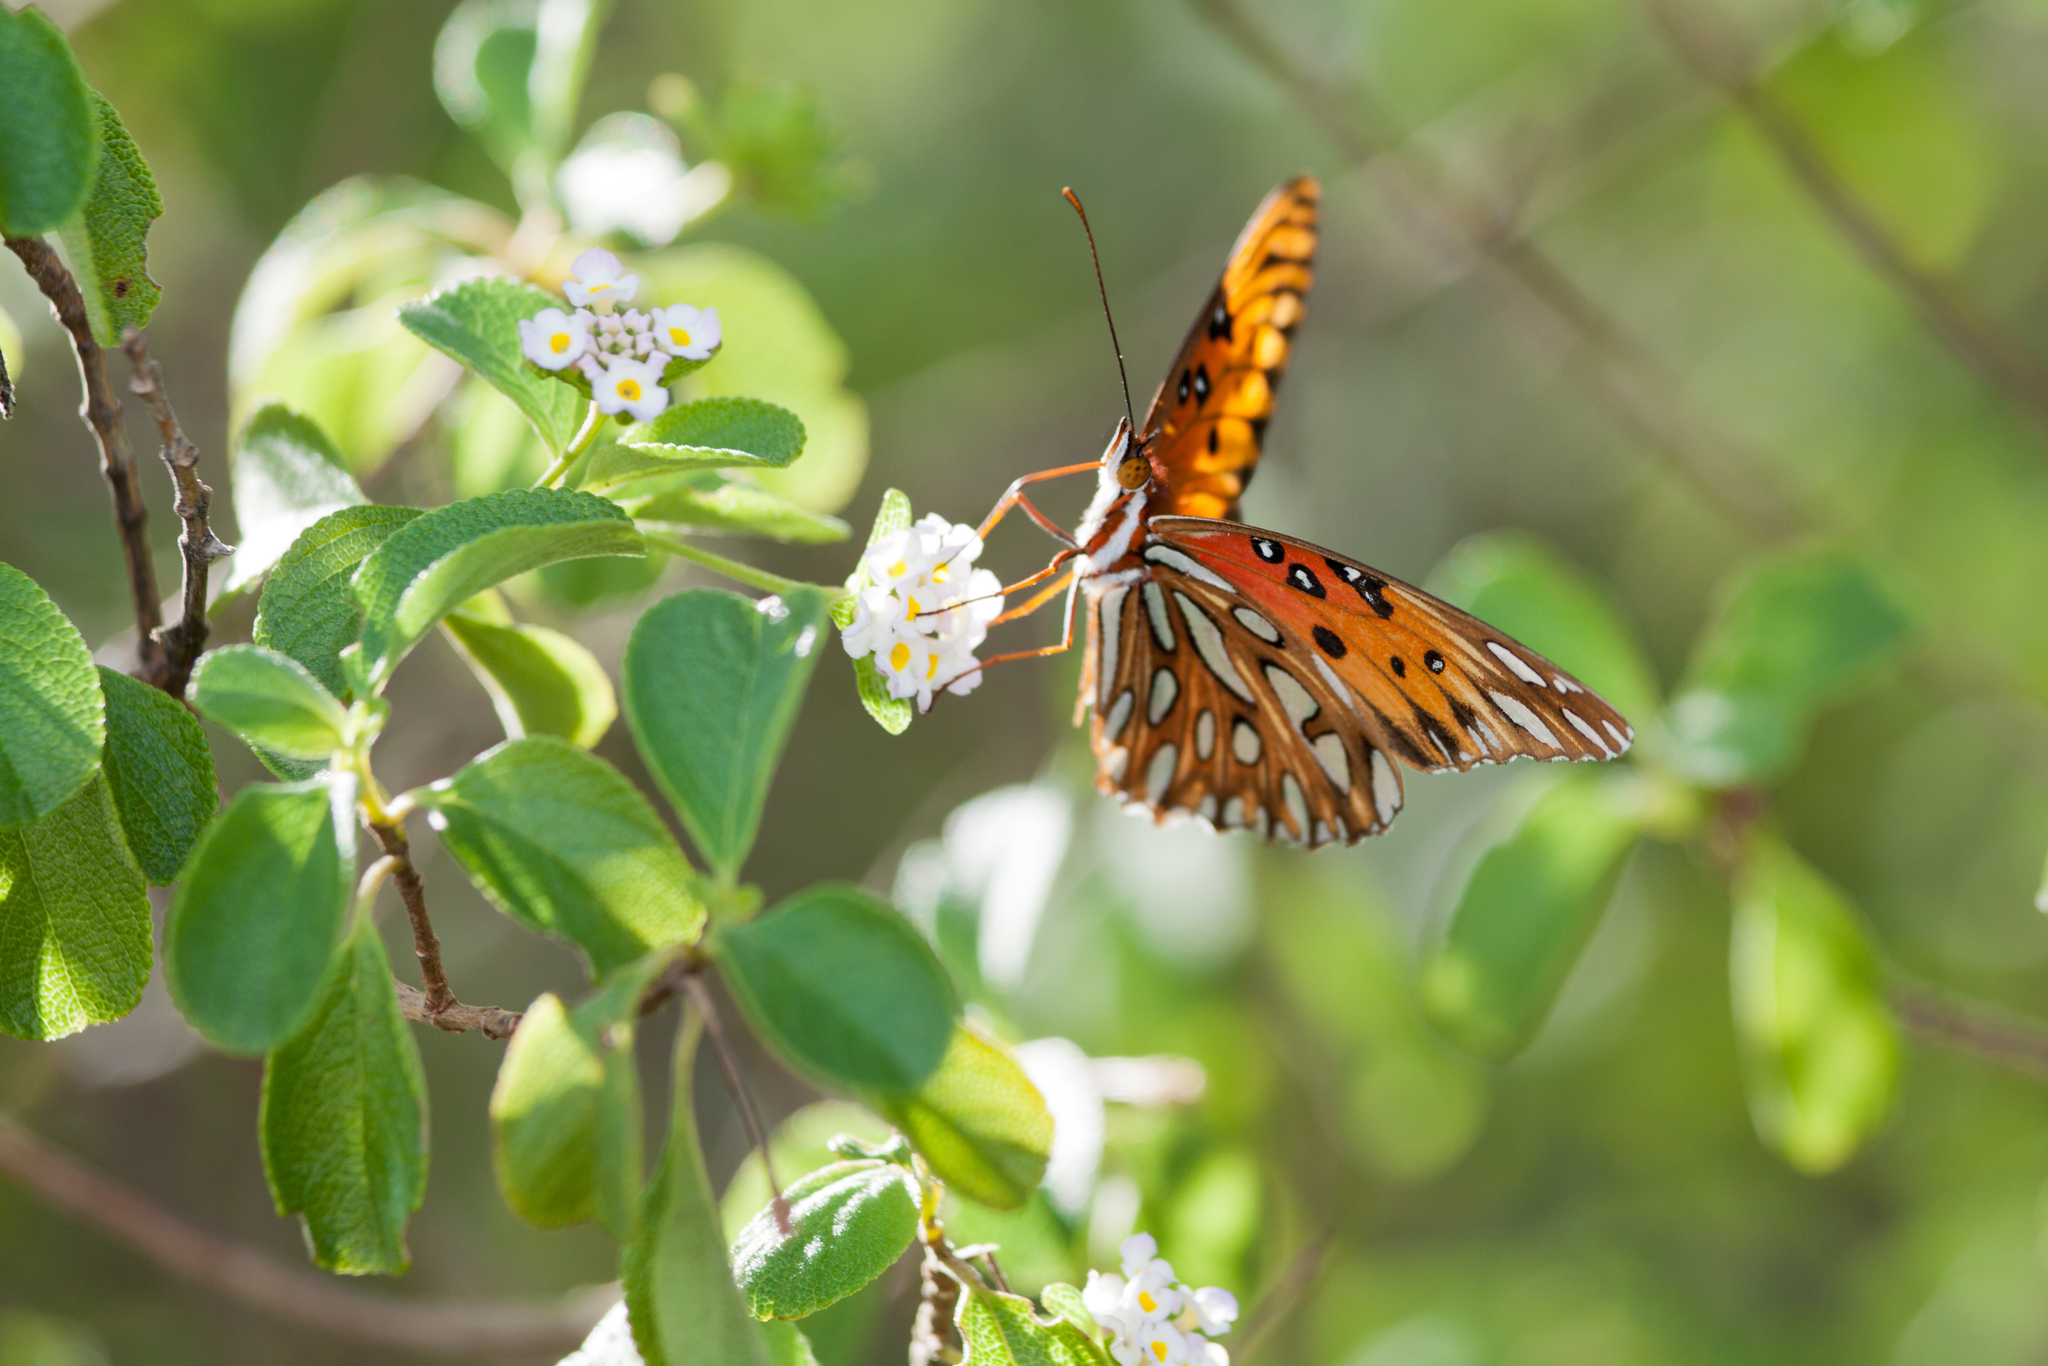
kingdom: Animalia
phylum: Arthropoda
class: Insecta
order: Lepidoptera
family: Nymphalidae
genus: Dione
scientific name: Dione vanillae
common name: Gulf fritillary
